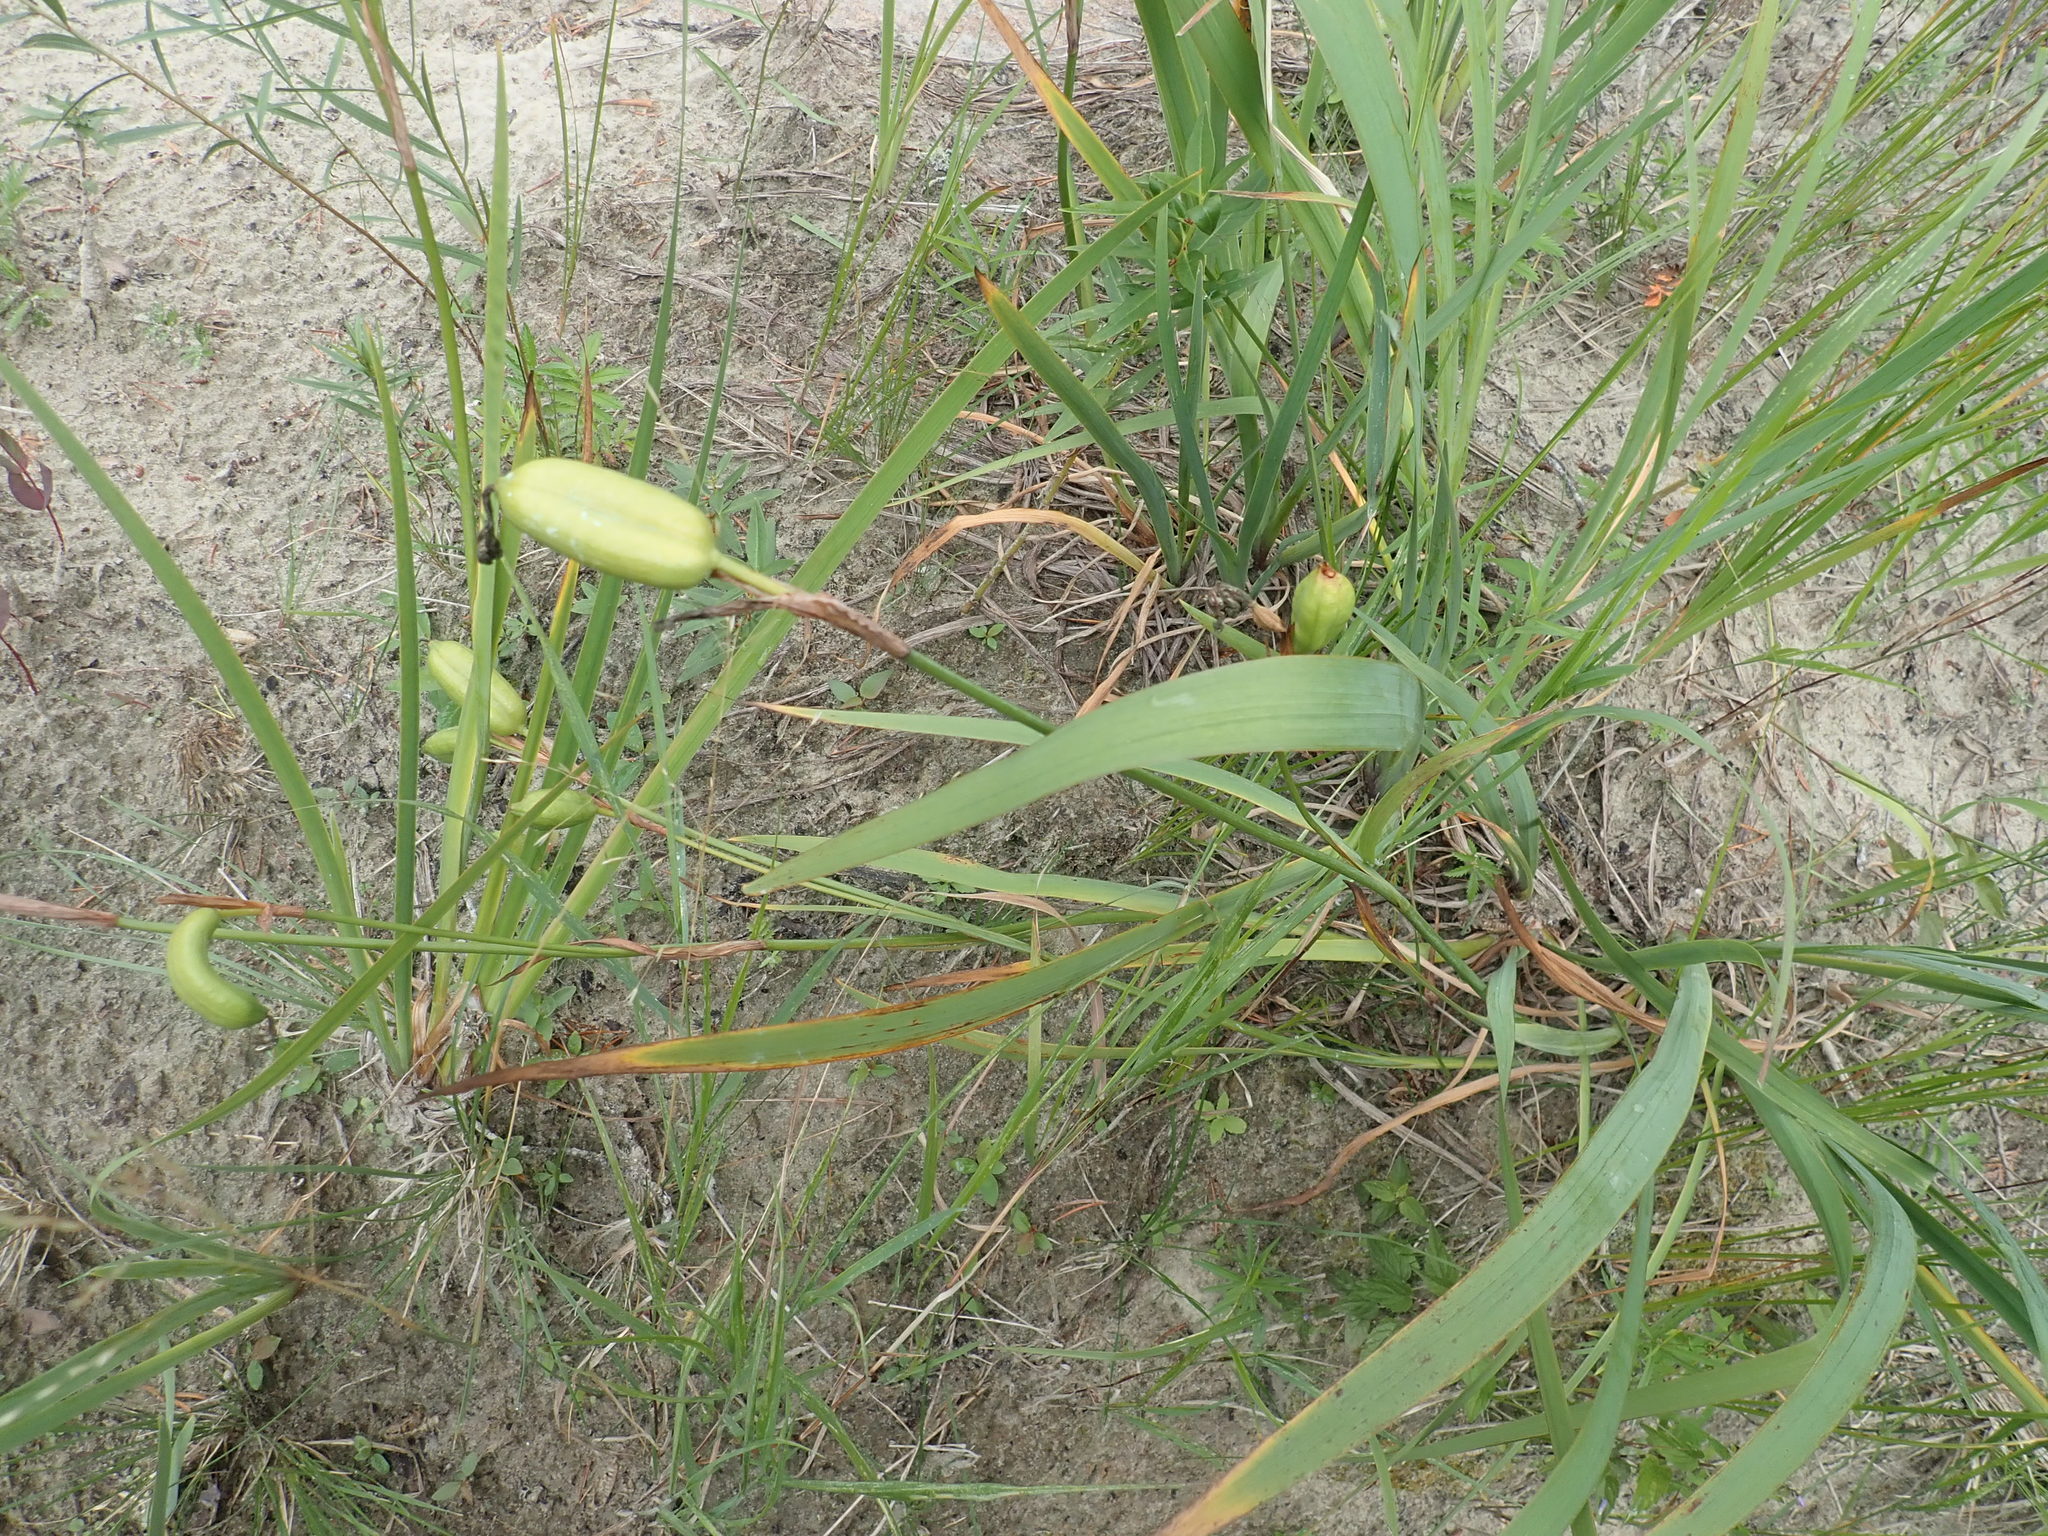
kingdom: Plantae
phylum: Tracheophyta
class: Liliopsida
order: Asparagales
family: Iridaceae
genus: Iris
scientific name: Iris versicolor
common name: Purple iris
